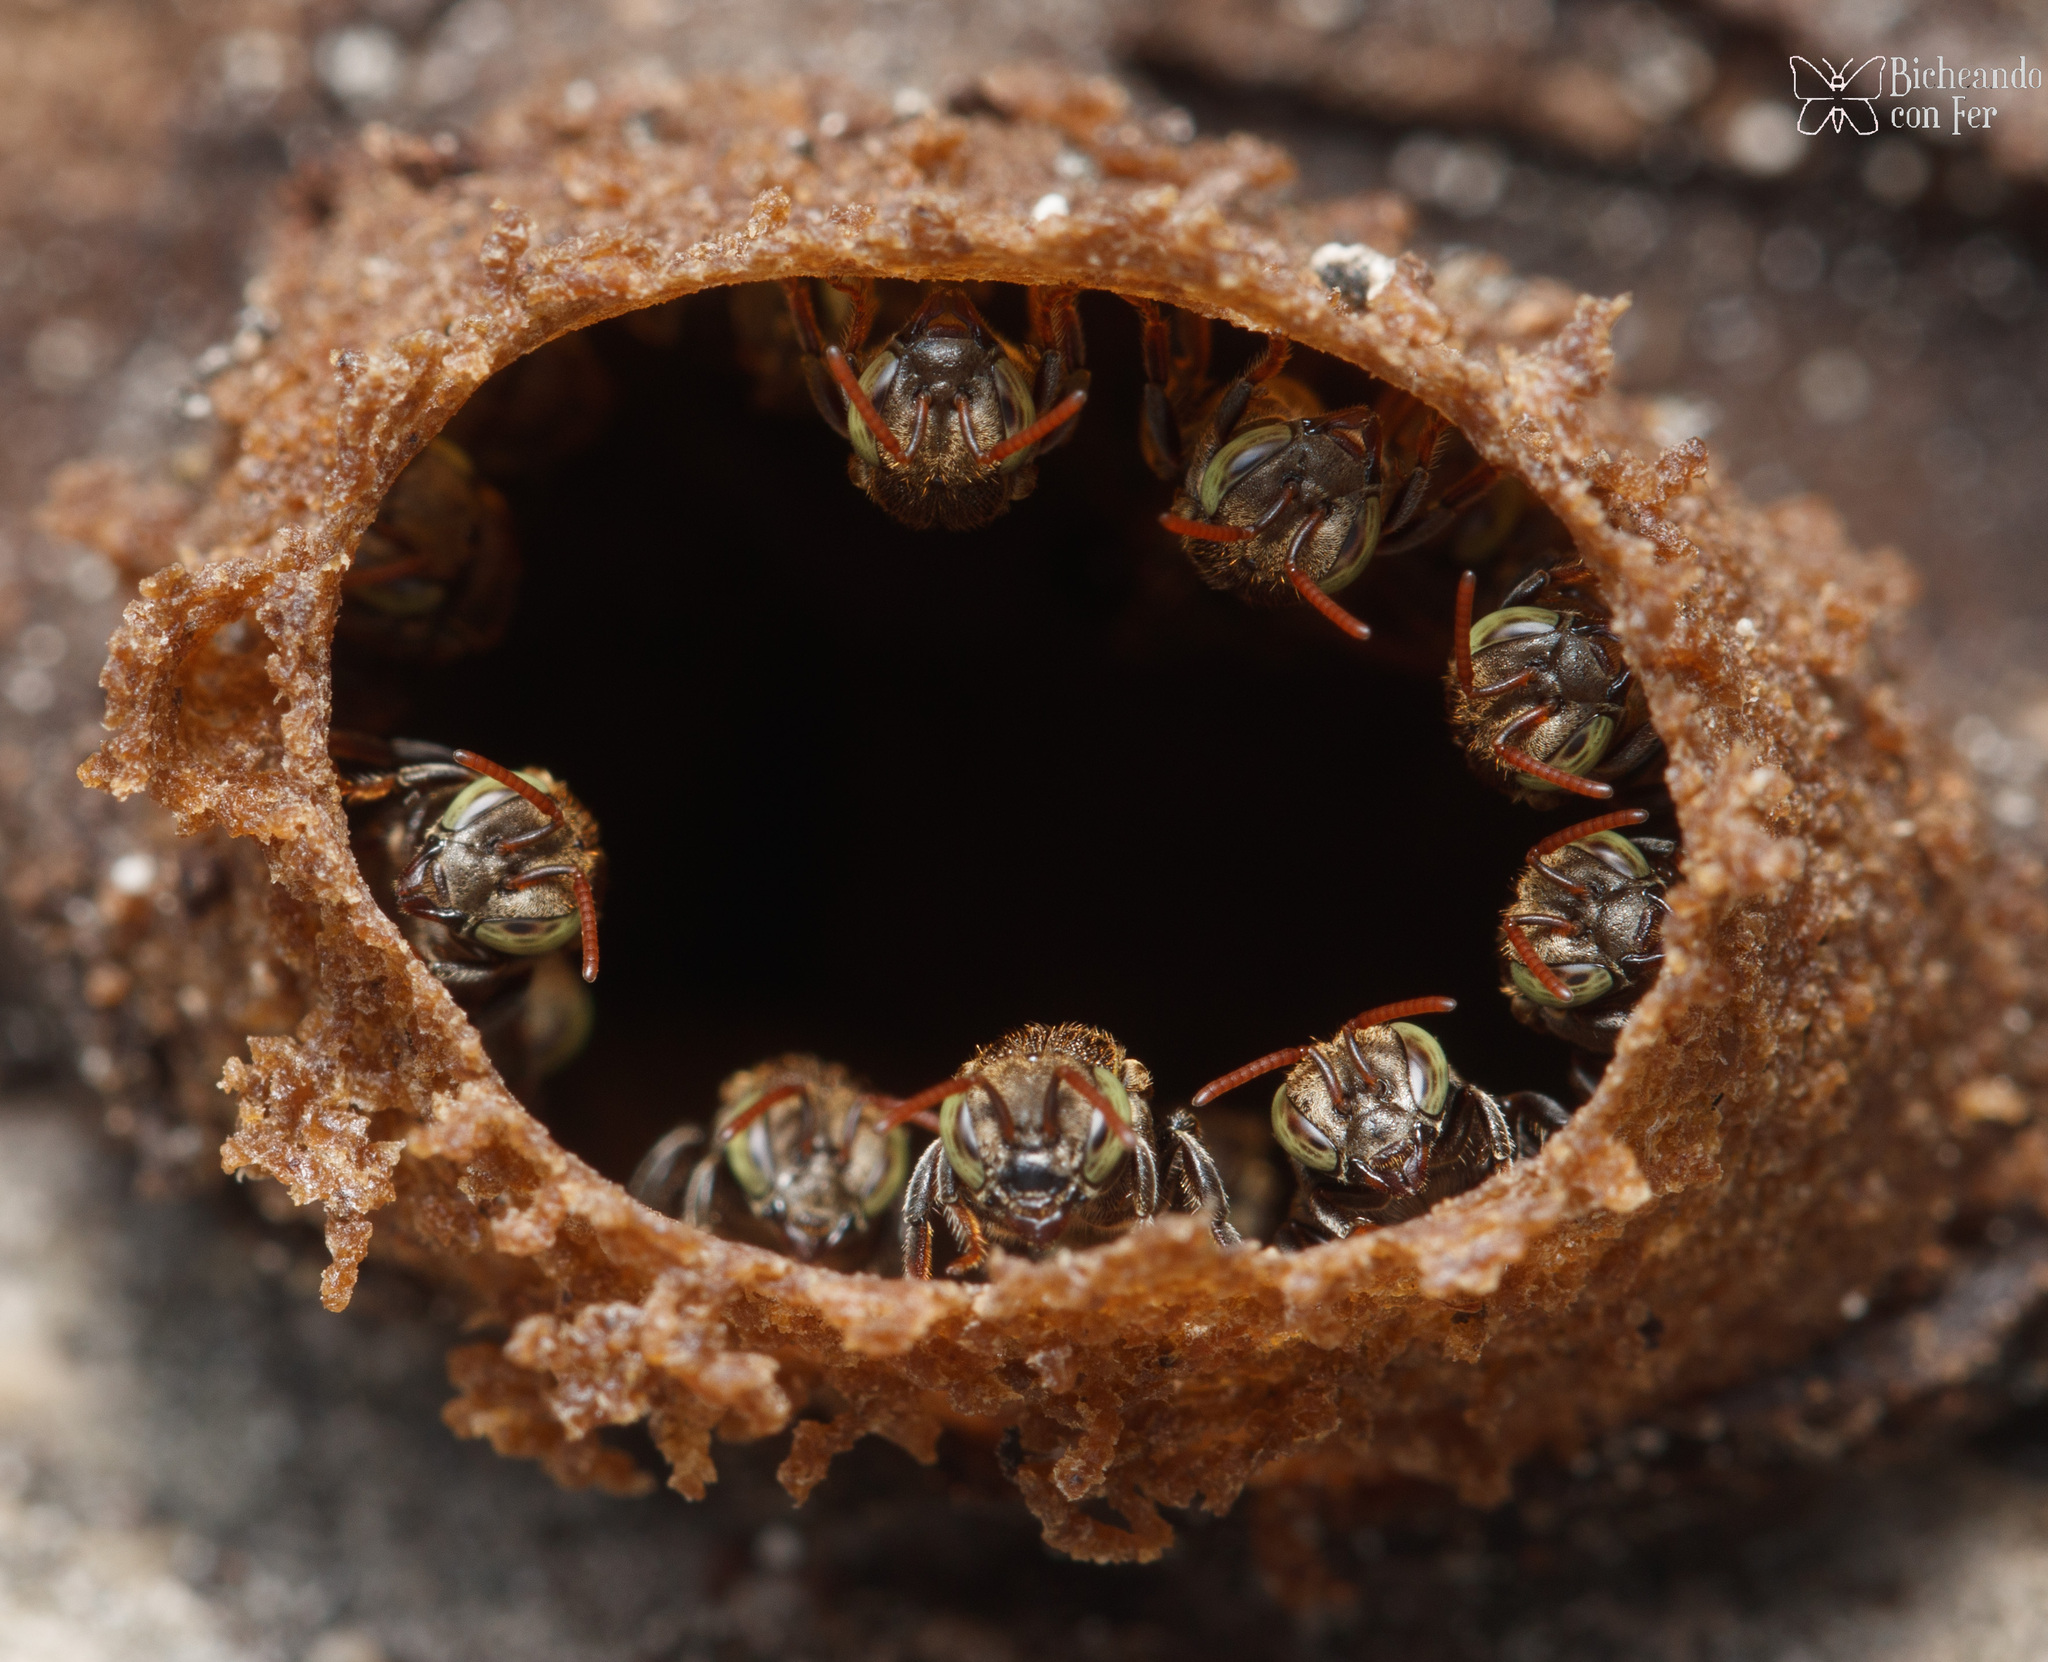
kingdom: Animalia
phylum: Arthropoda
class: Insecta
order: Hymenoptera
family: Apidae
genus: Nannotrigona
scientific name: Nannotrigona perilampoides
